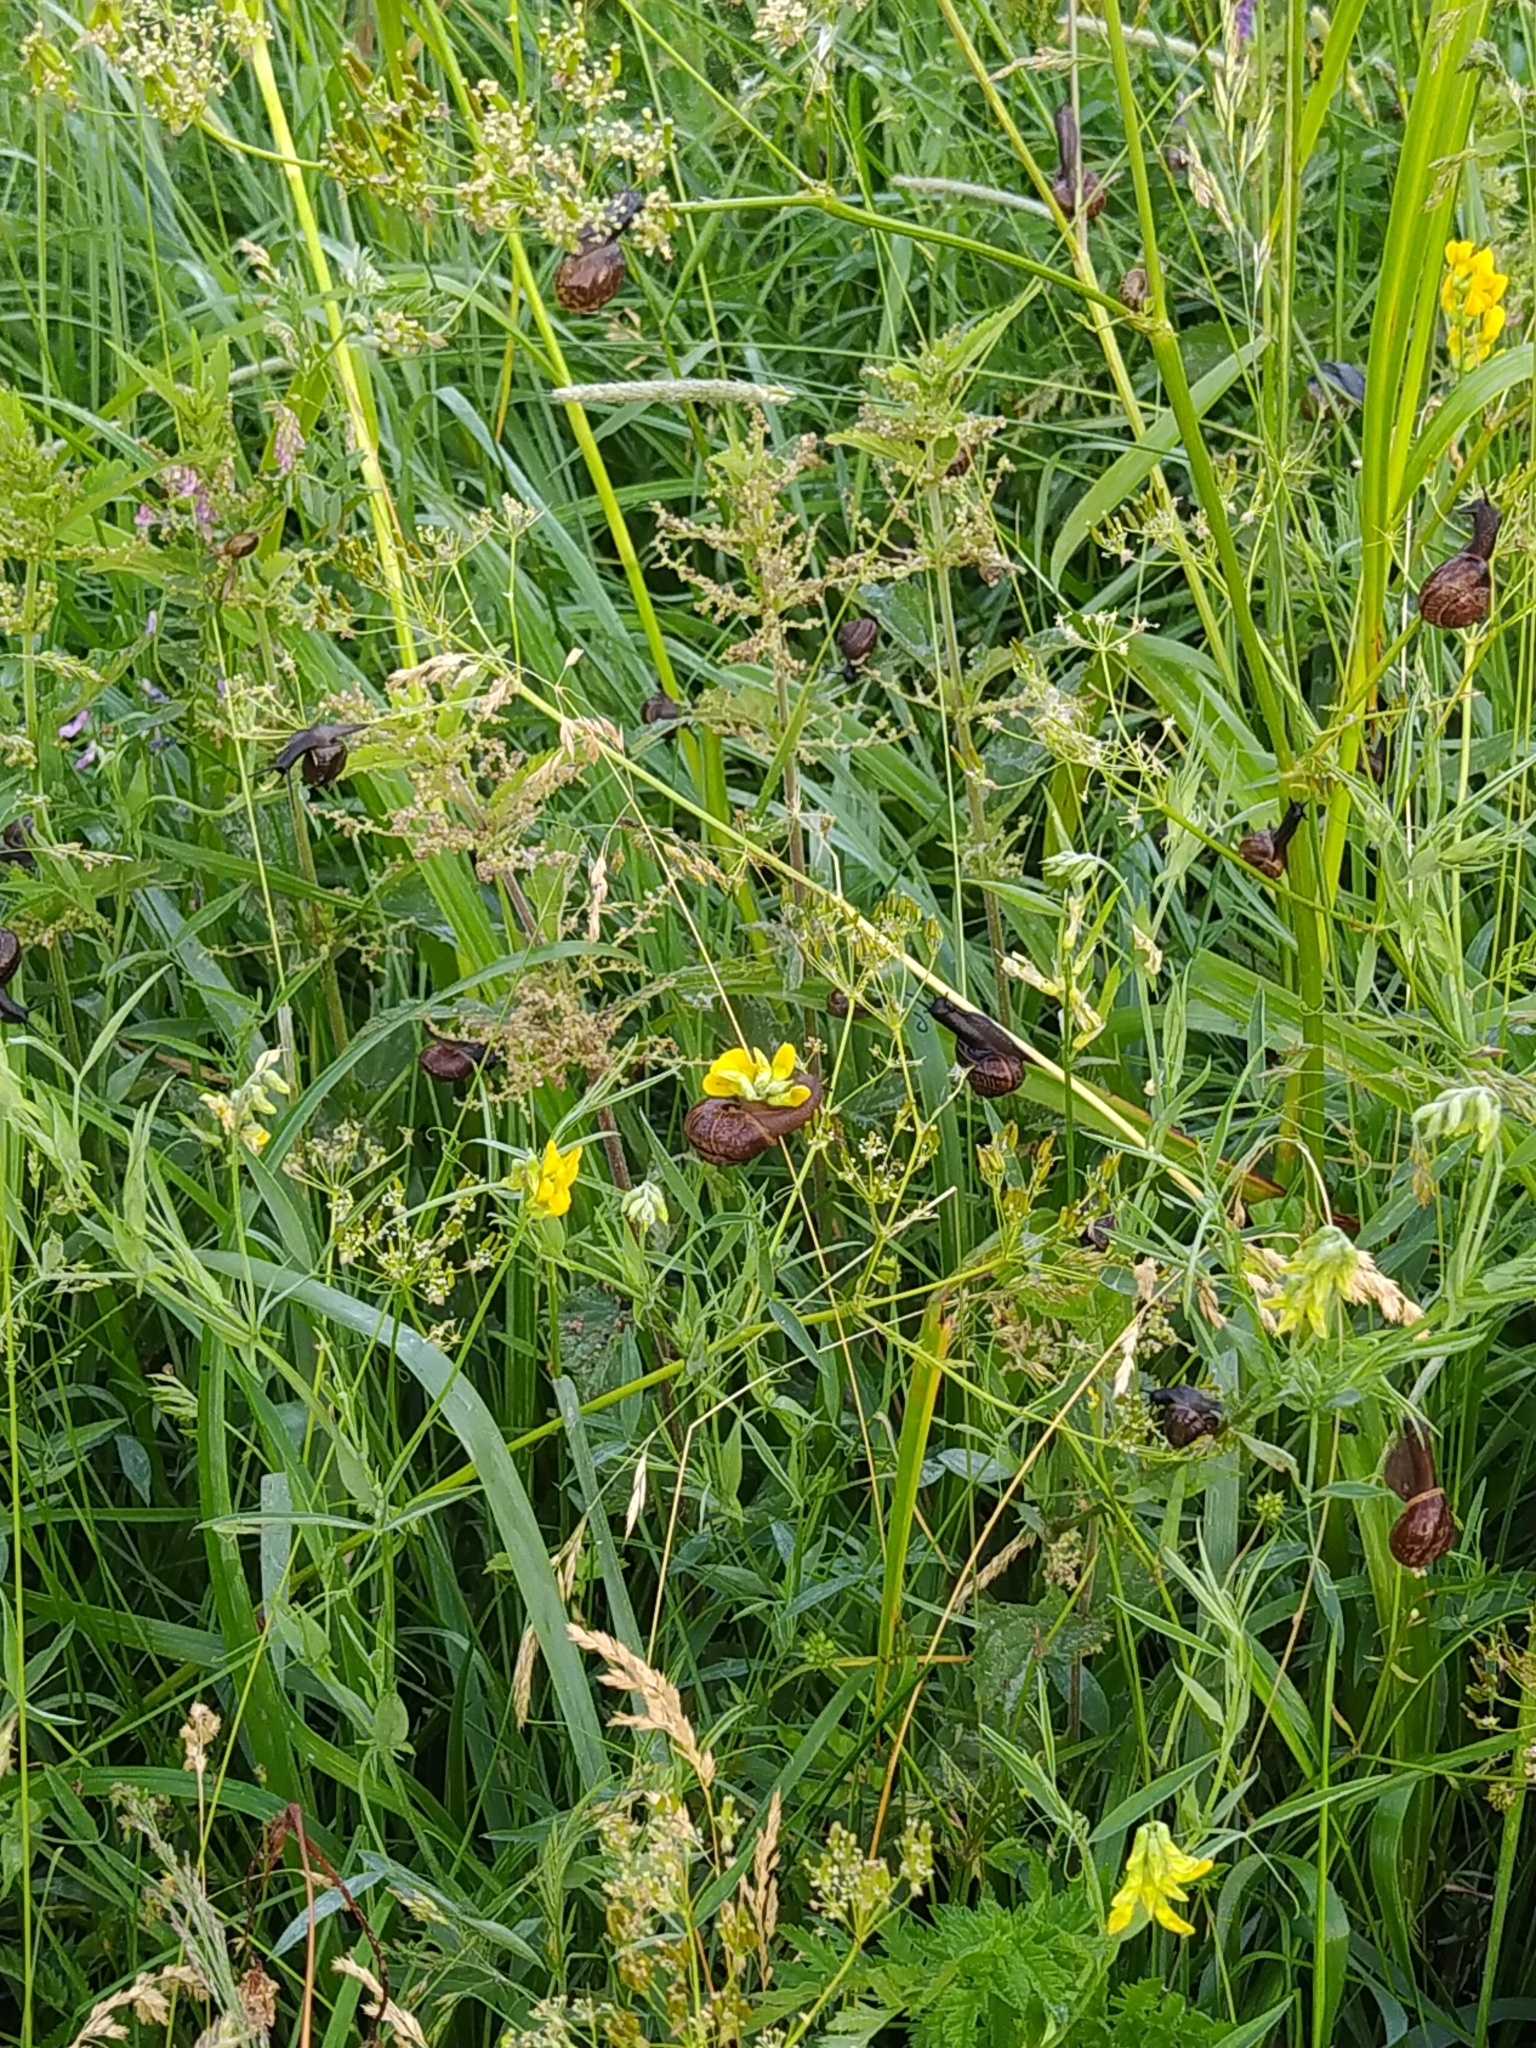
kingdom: Animalia
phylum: Mollusca
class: Gastropoda
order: Stylommatophora
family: Helicidae
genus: Arianta
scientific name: Arianta arbustorum
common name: Copse snail
